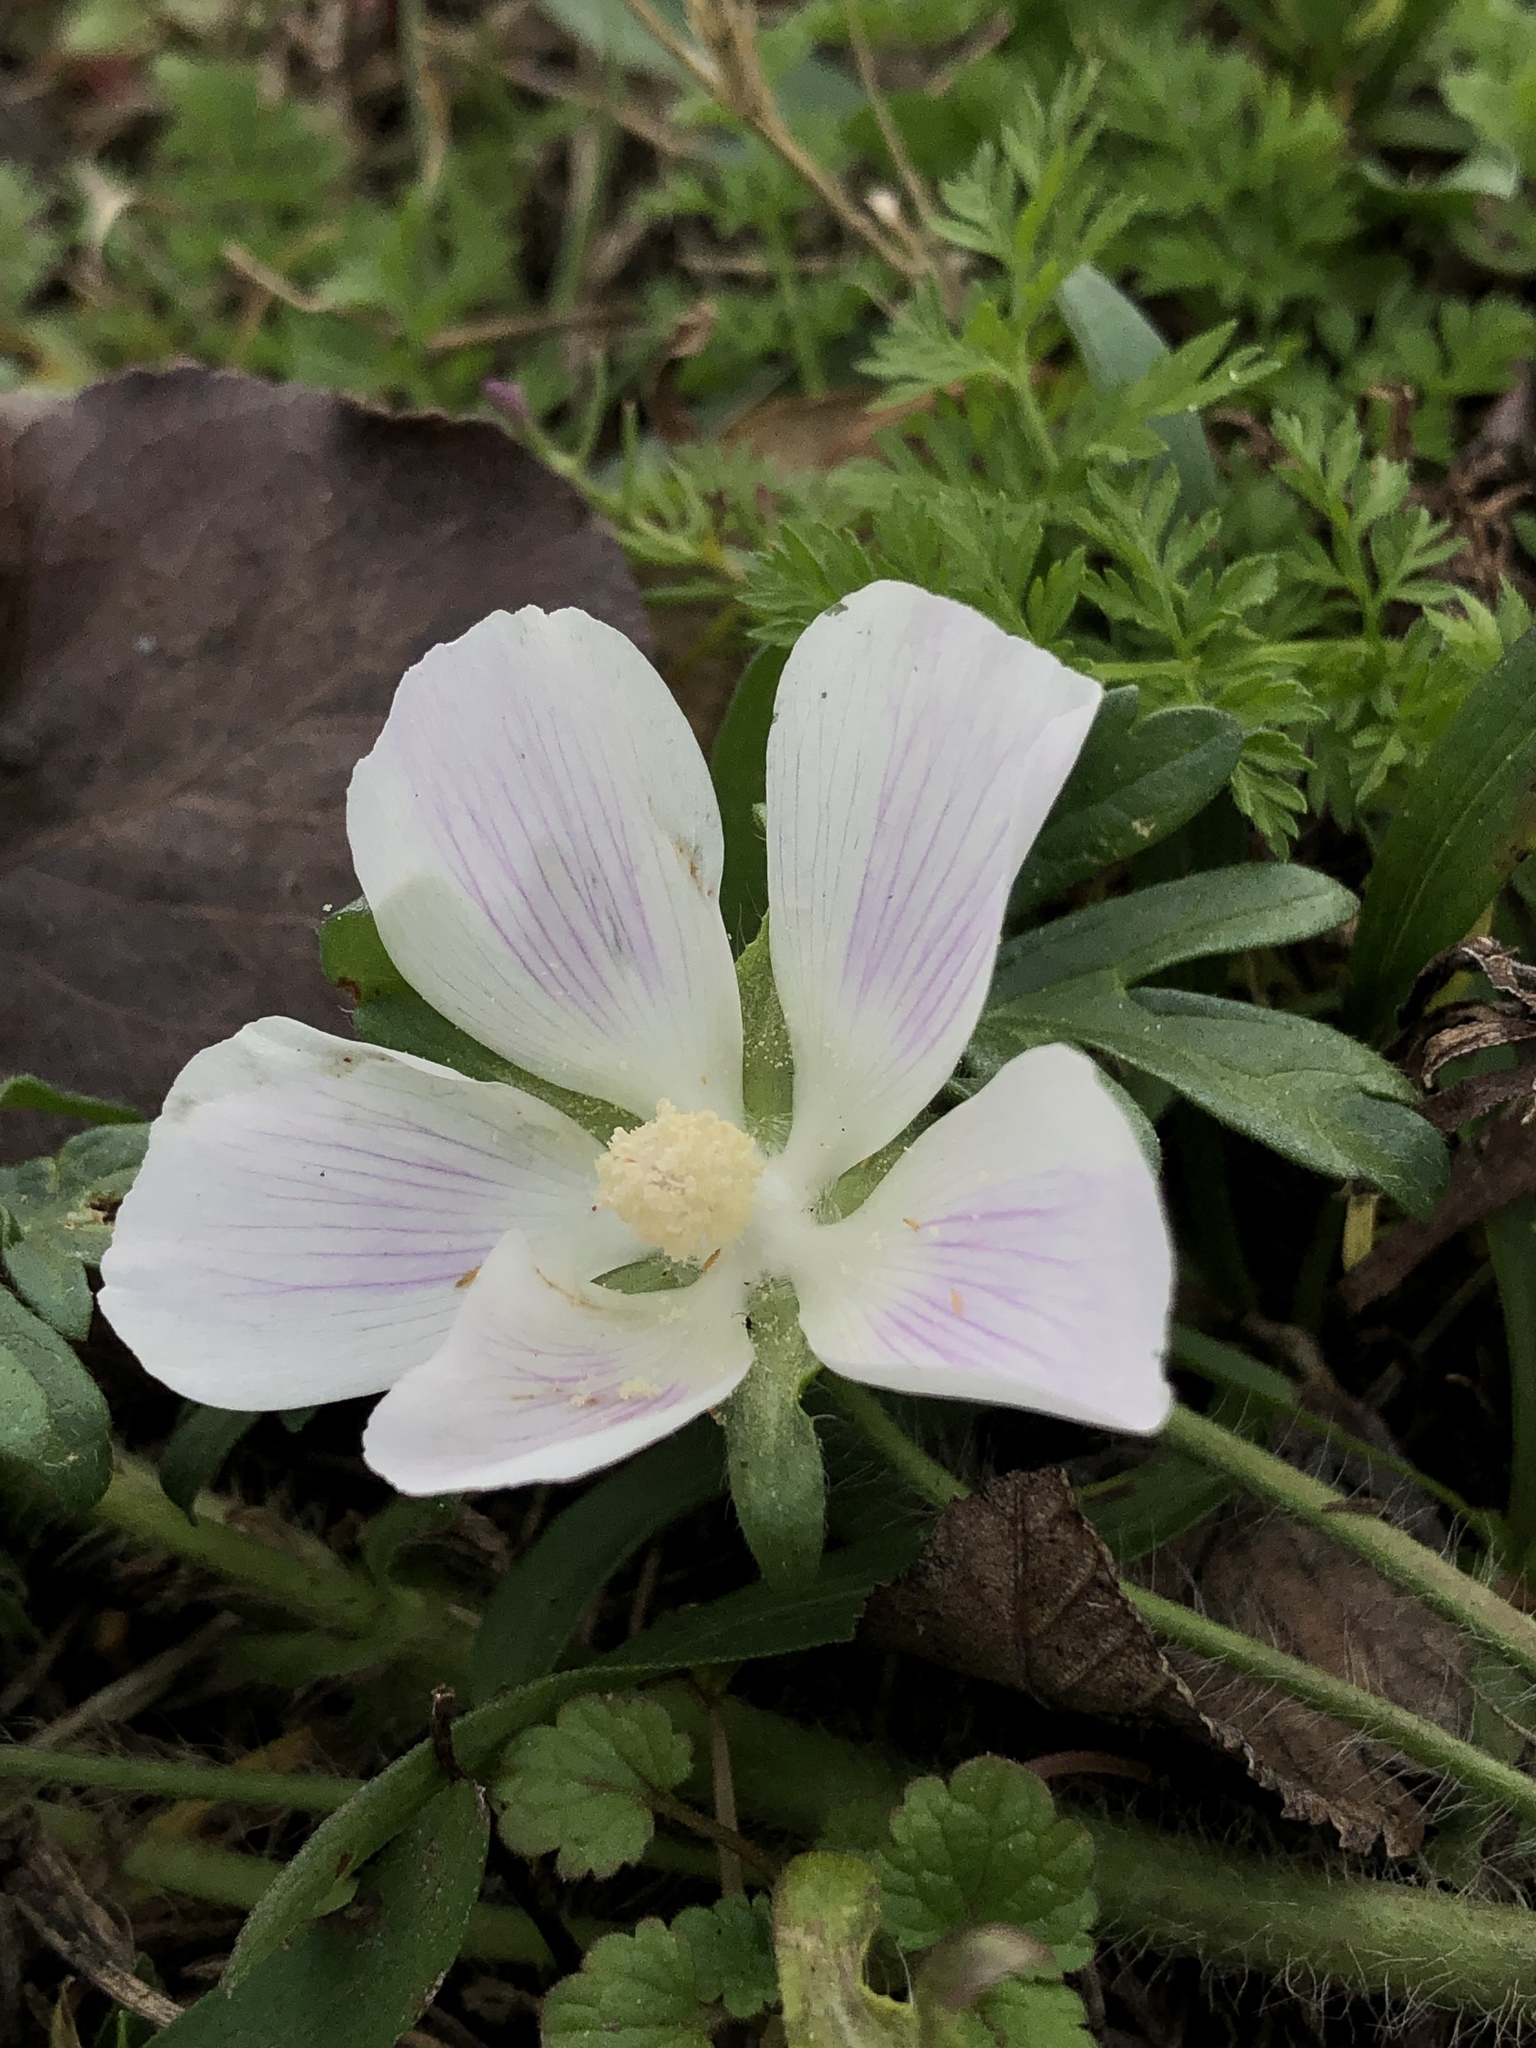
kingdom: Plantae
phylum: Tracheophyta
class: Magnoliopsida
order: Malvales
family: Malvaceae
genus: Callirhoe
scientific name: Callirhoe involucrata
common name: Purple poppy-mallow
